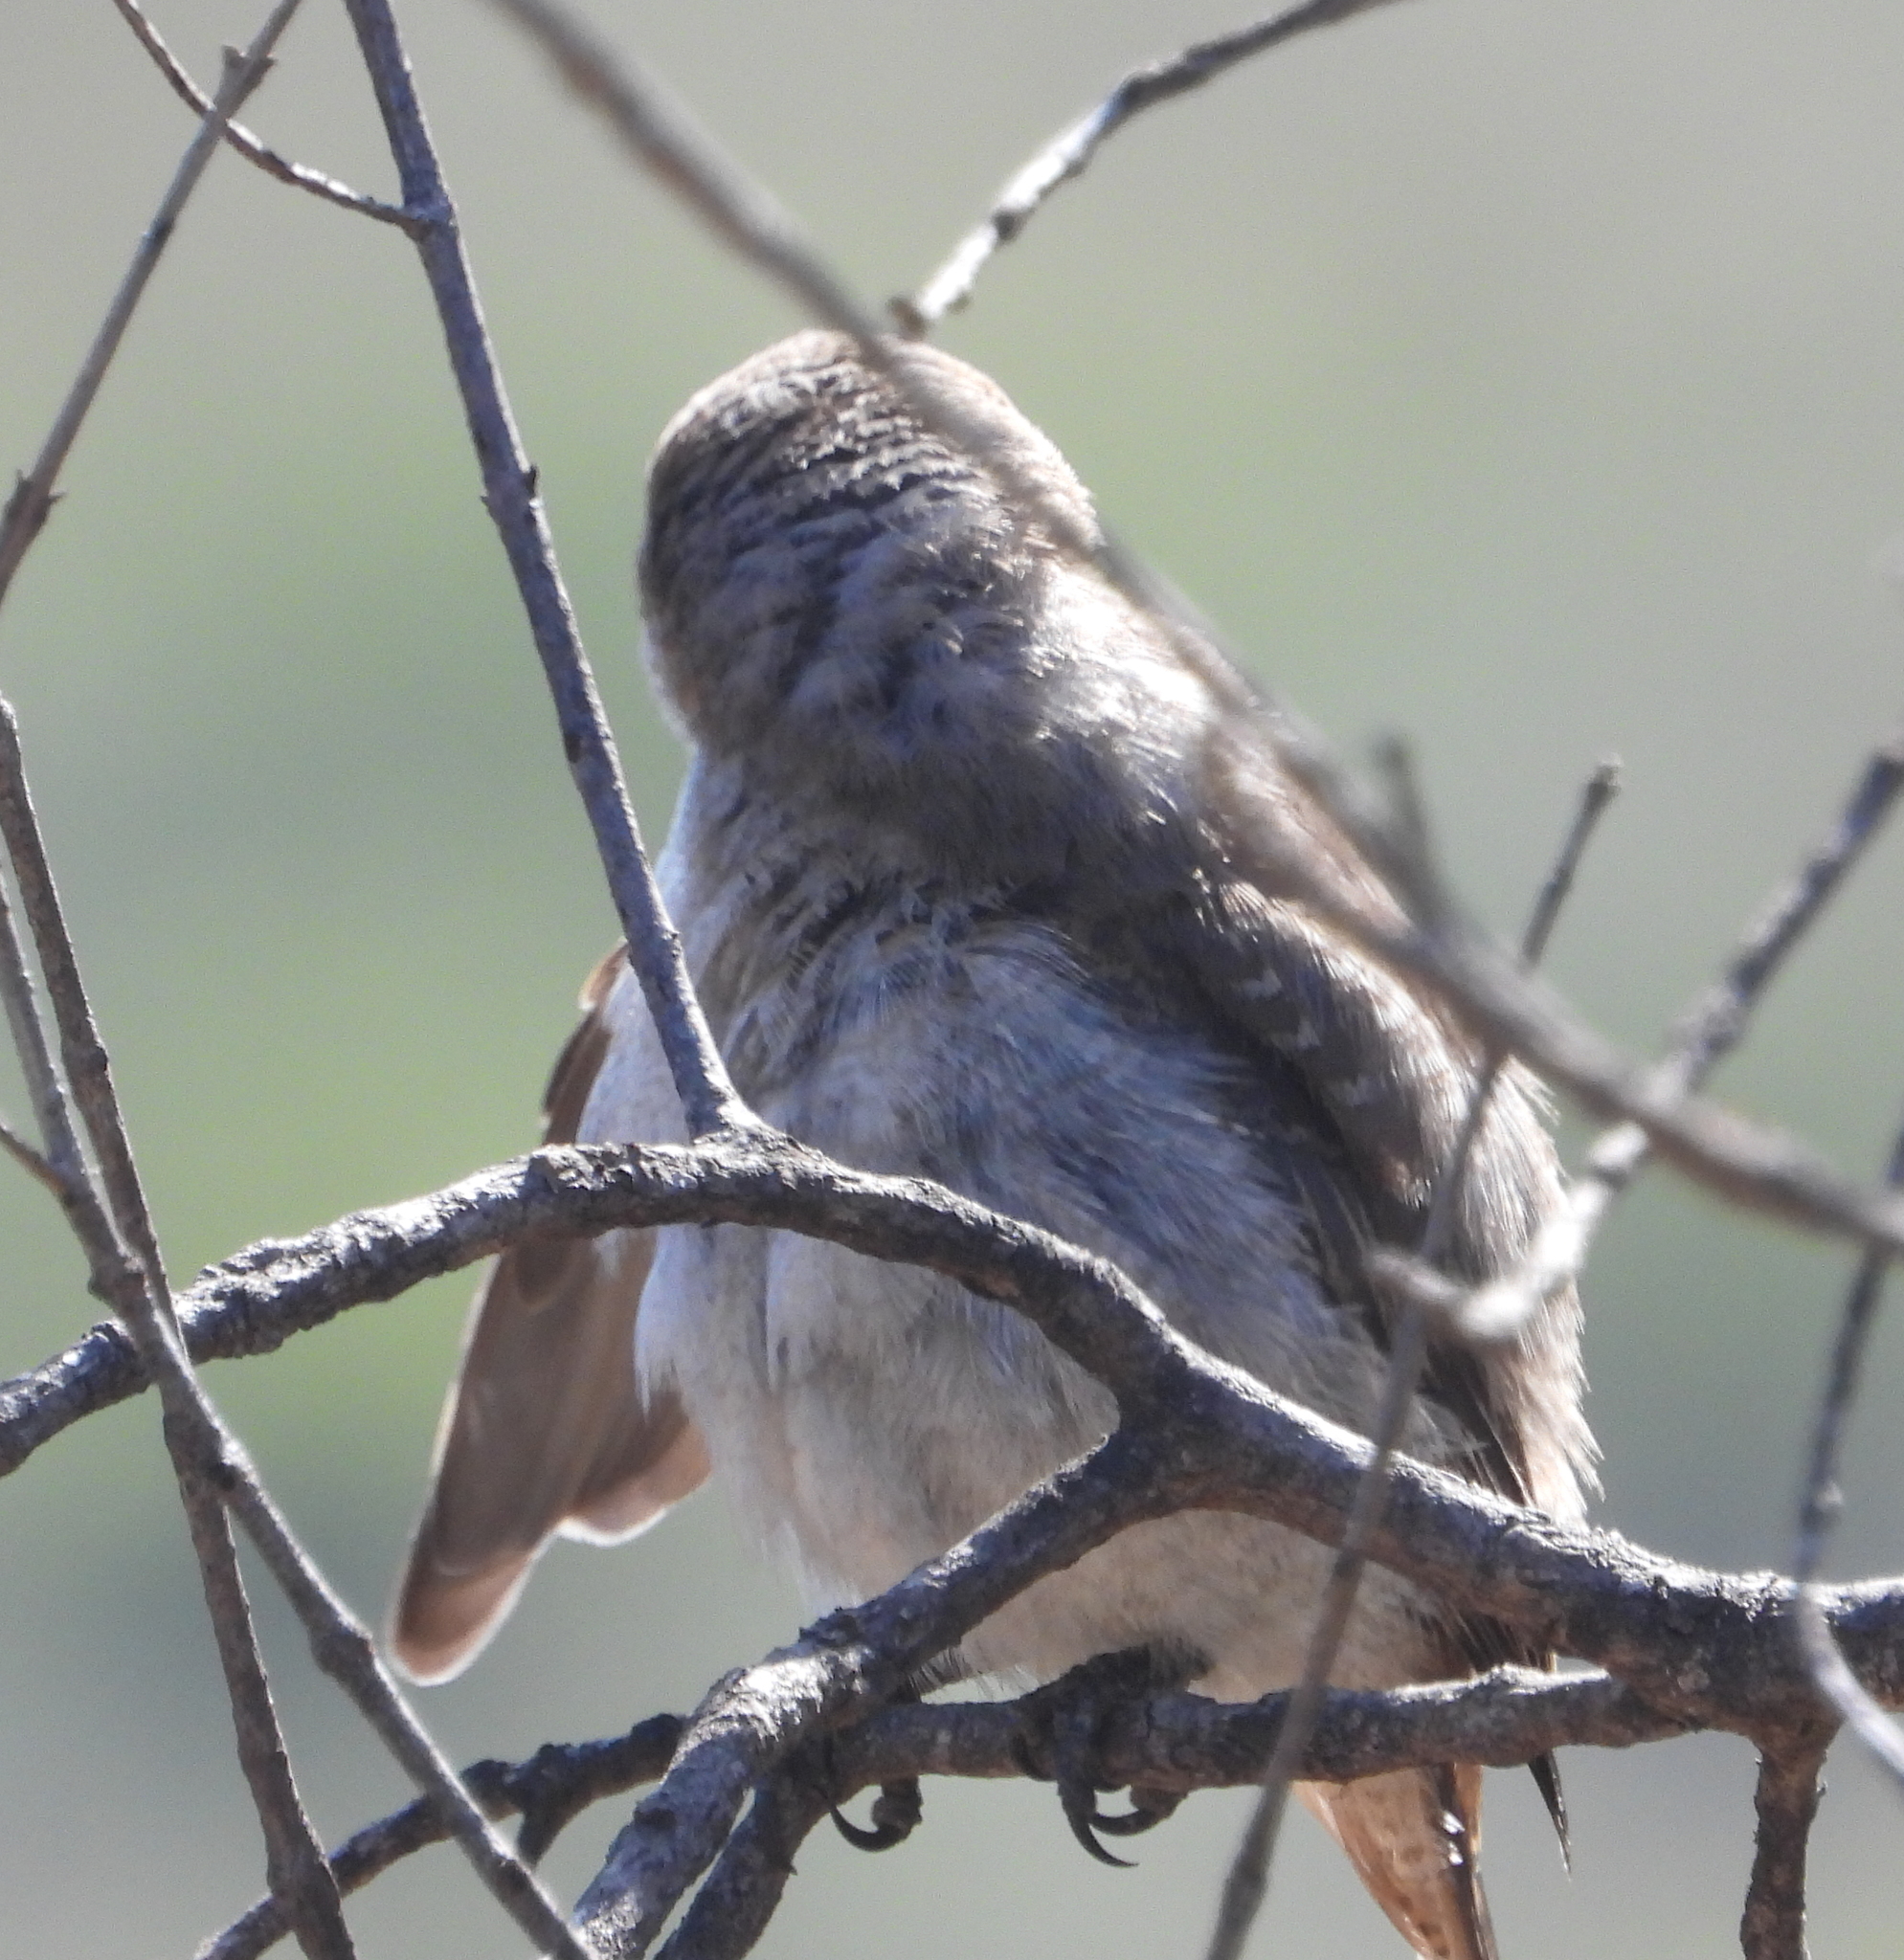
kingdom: Animalia
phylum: Chordata
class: Aves
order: Passeriformes
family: Laniidae
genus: Lanius
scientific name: Lanius collaris
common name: Southern fiscal
